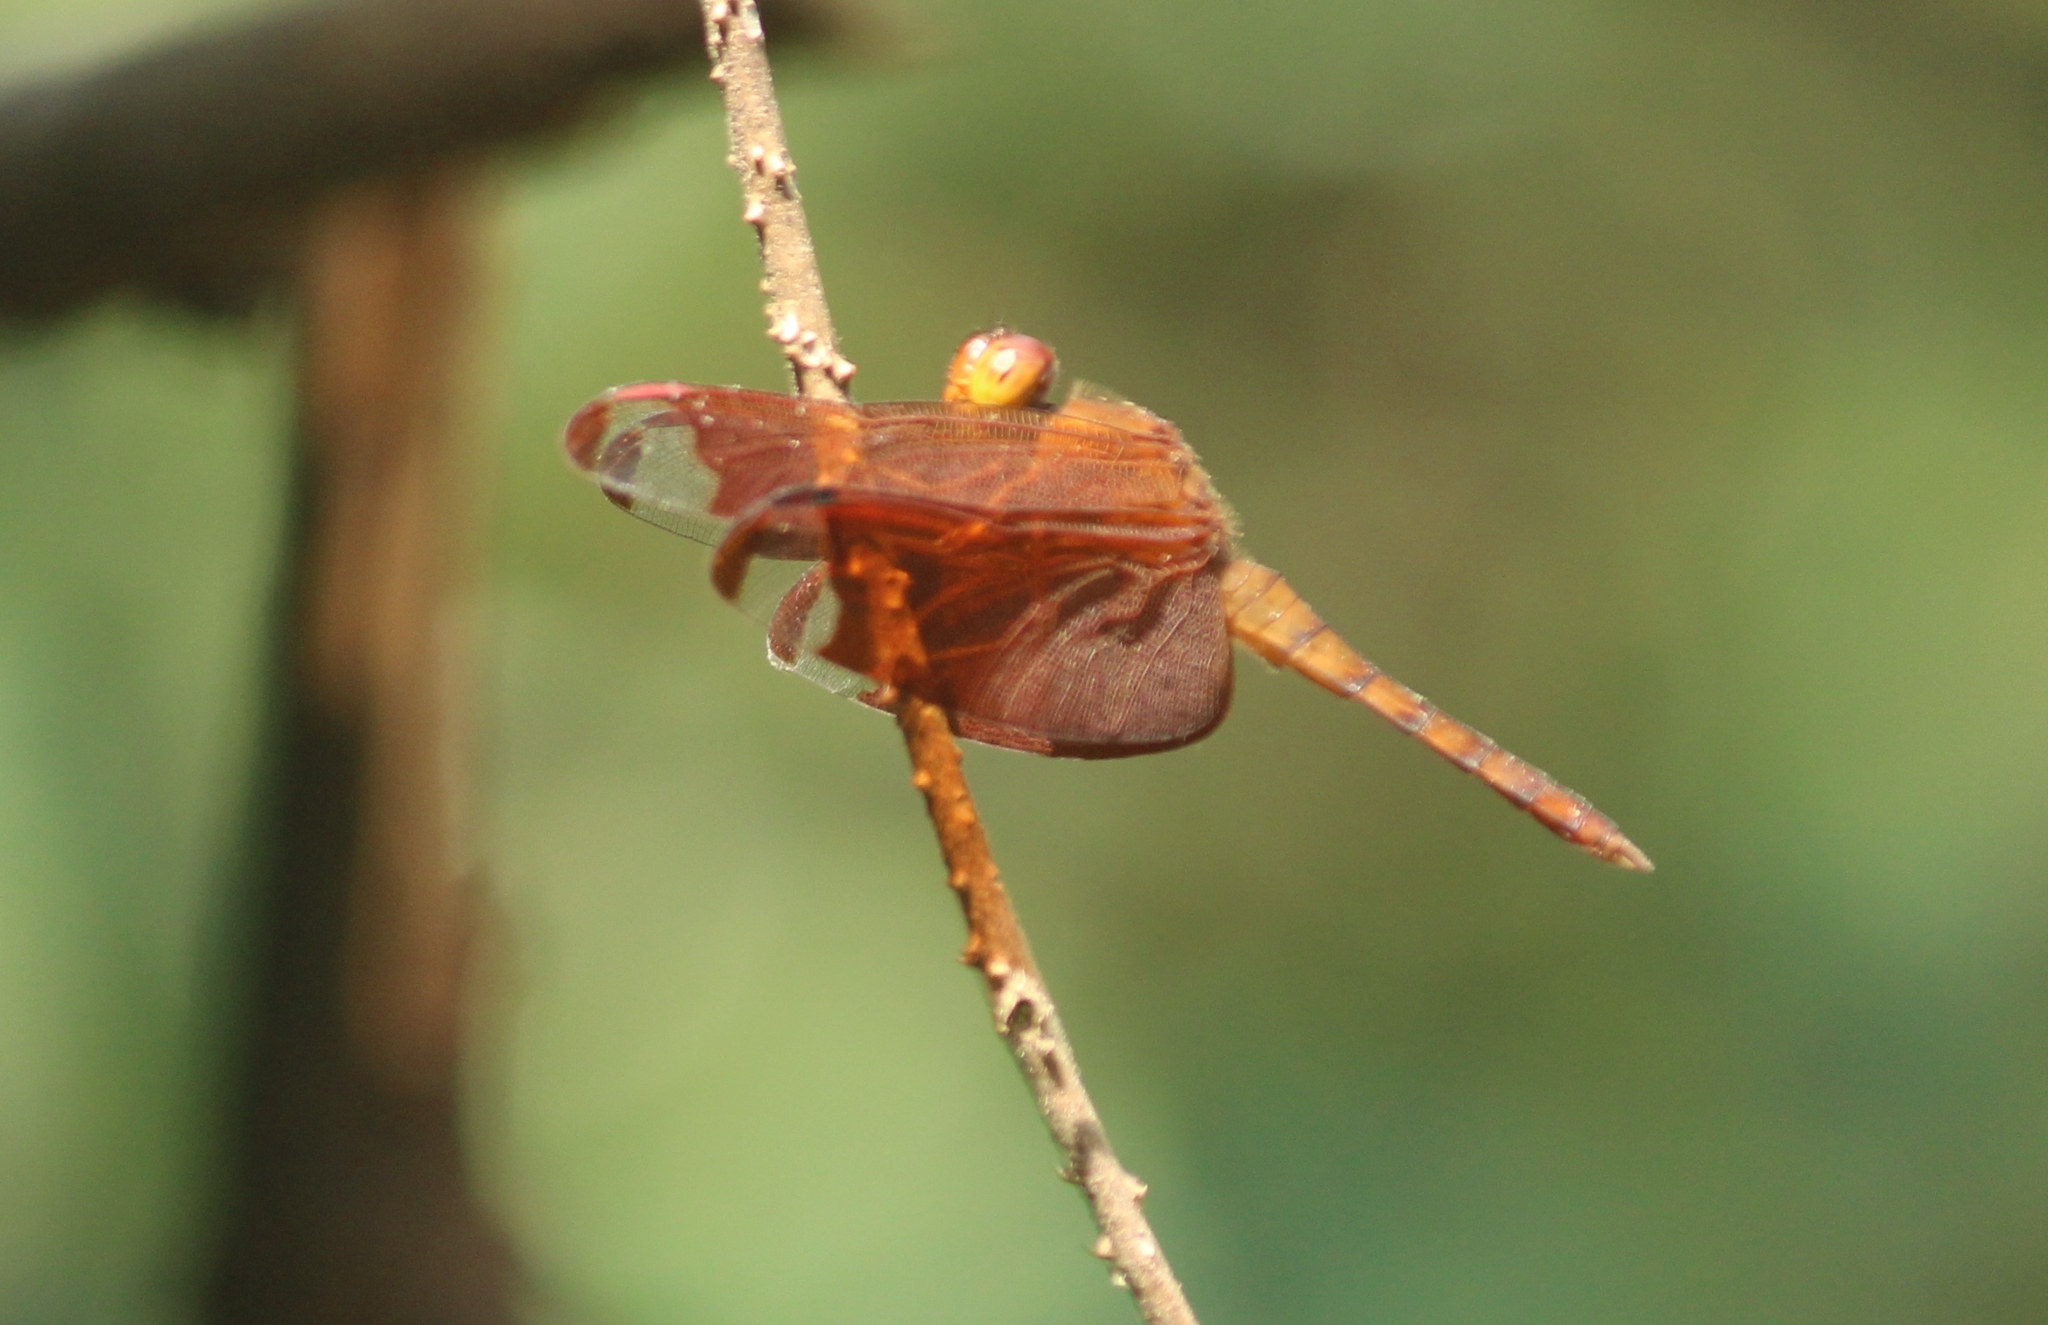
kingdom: Animalia
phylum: Arthropoda
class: Insecta
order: Odonata
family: Libellulidae
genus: Neurothemis
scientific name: Neurothemis fulvia
